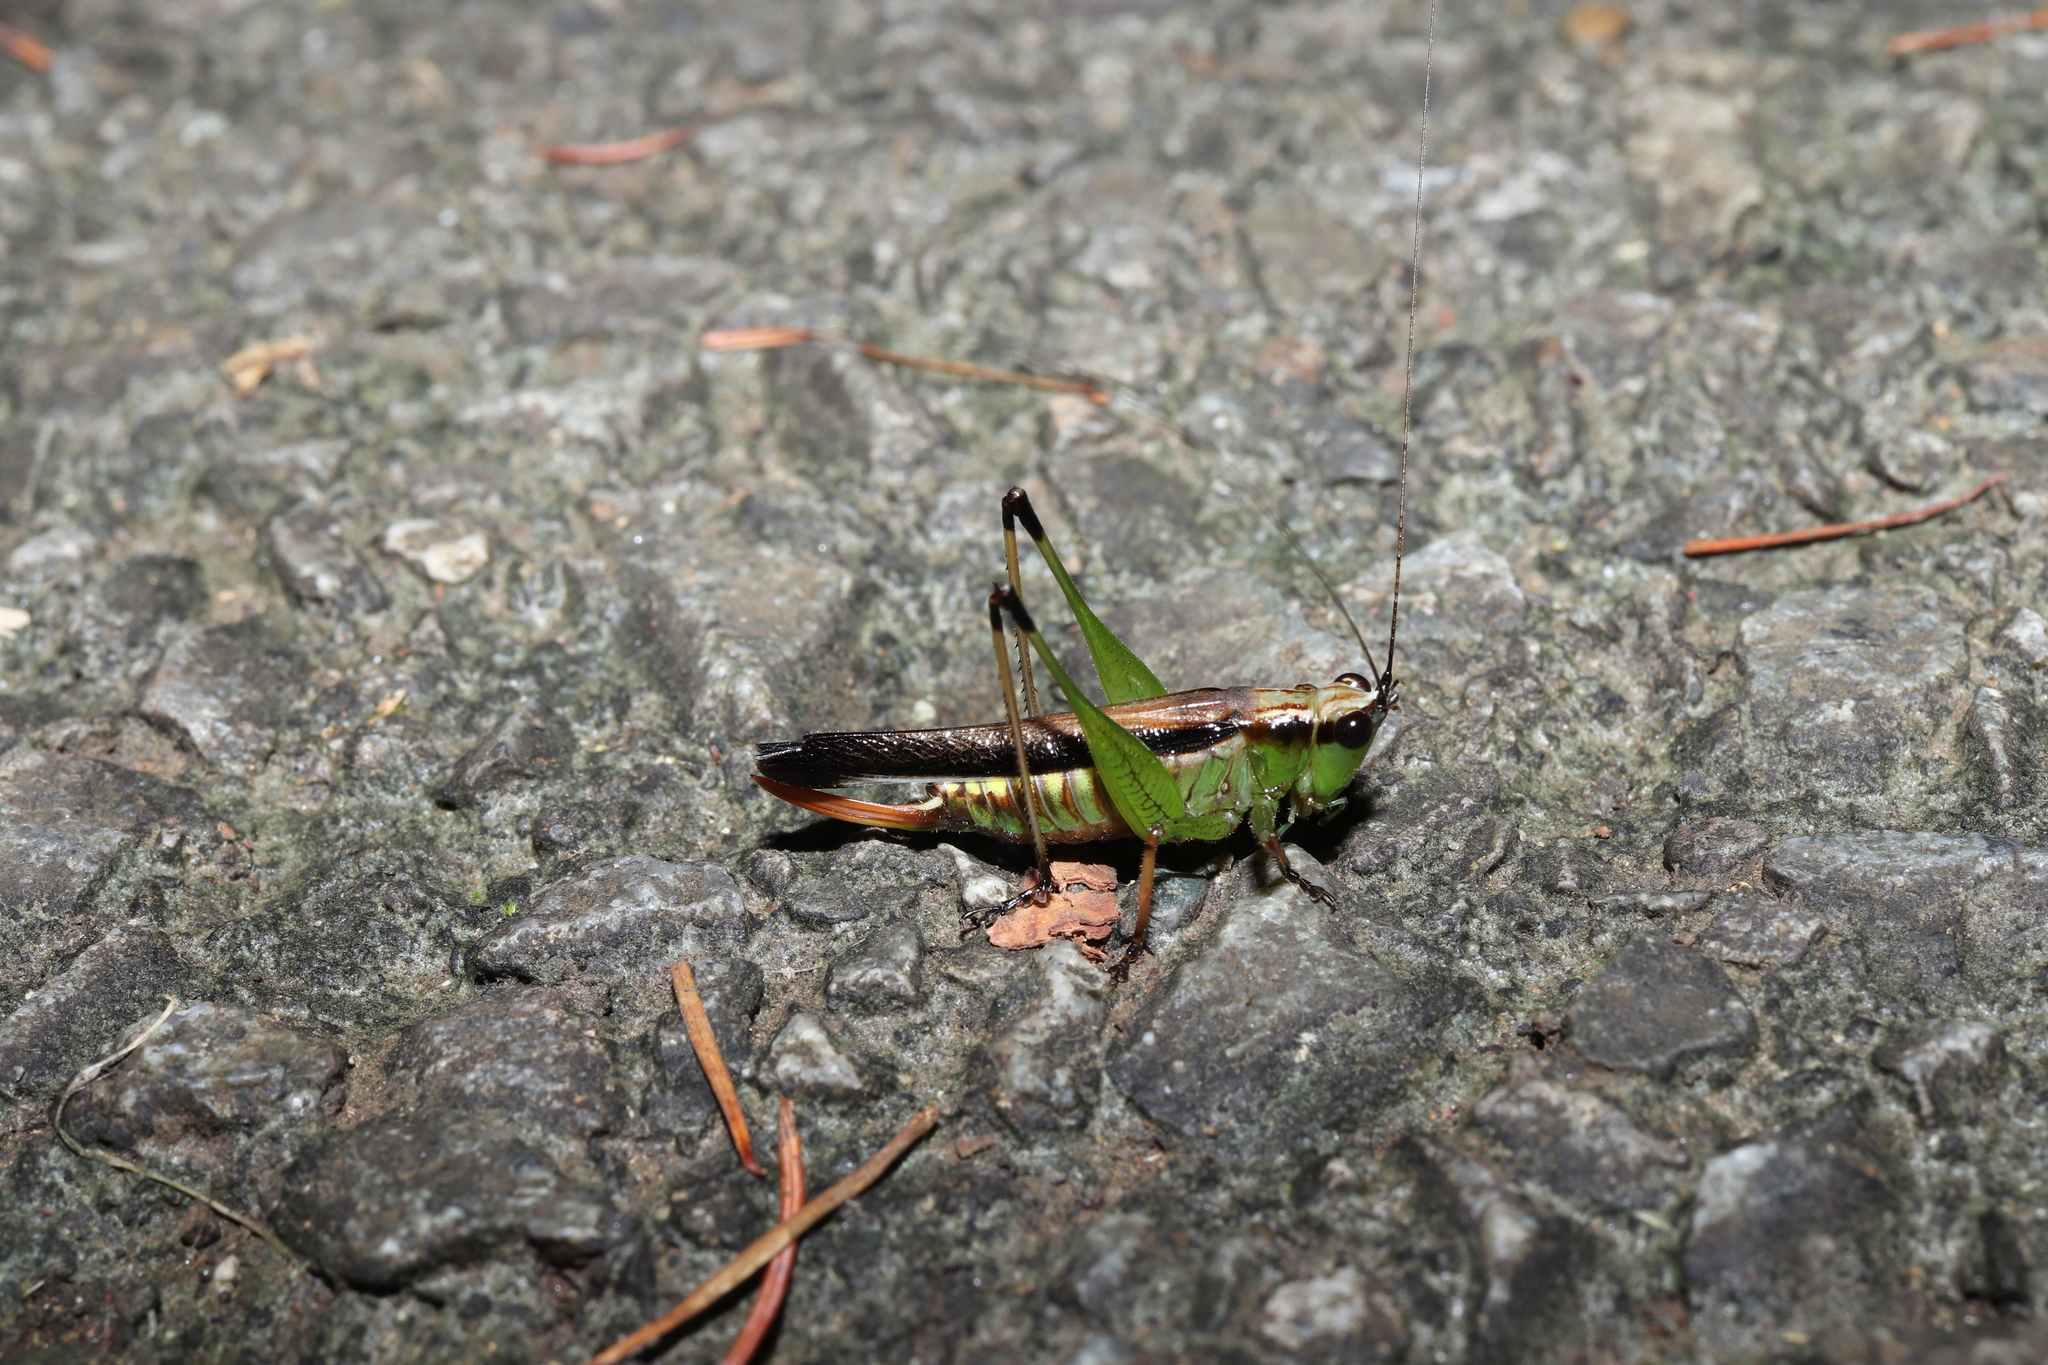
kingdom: Animalia
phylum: Arthropoda
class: Insecta
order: Orthoptera
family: Tettigoniidae
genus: Conocephalus
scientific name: Conocephalus melaenus
